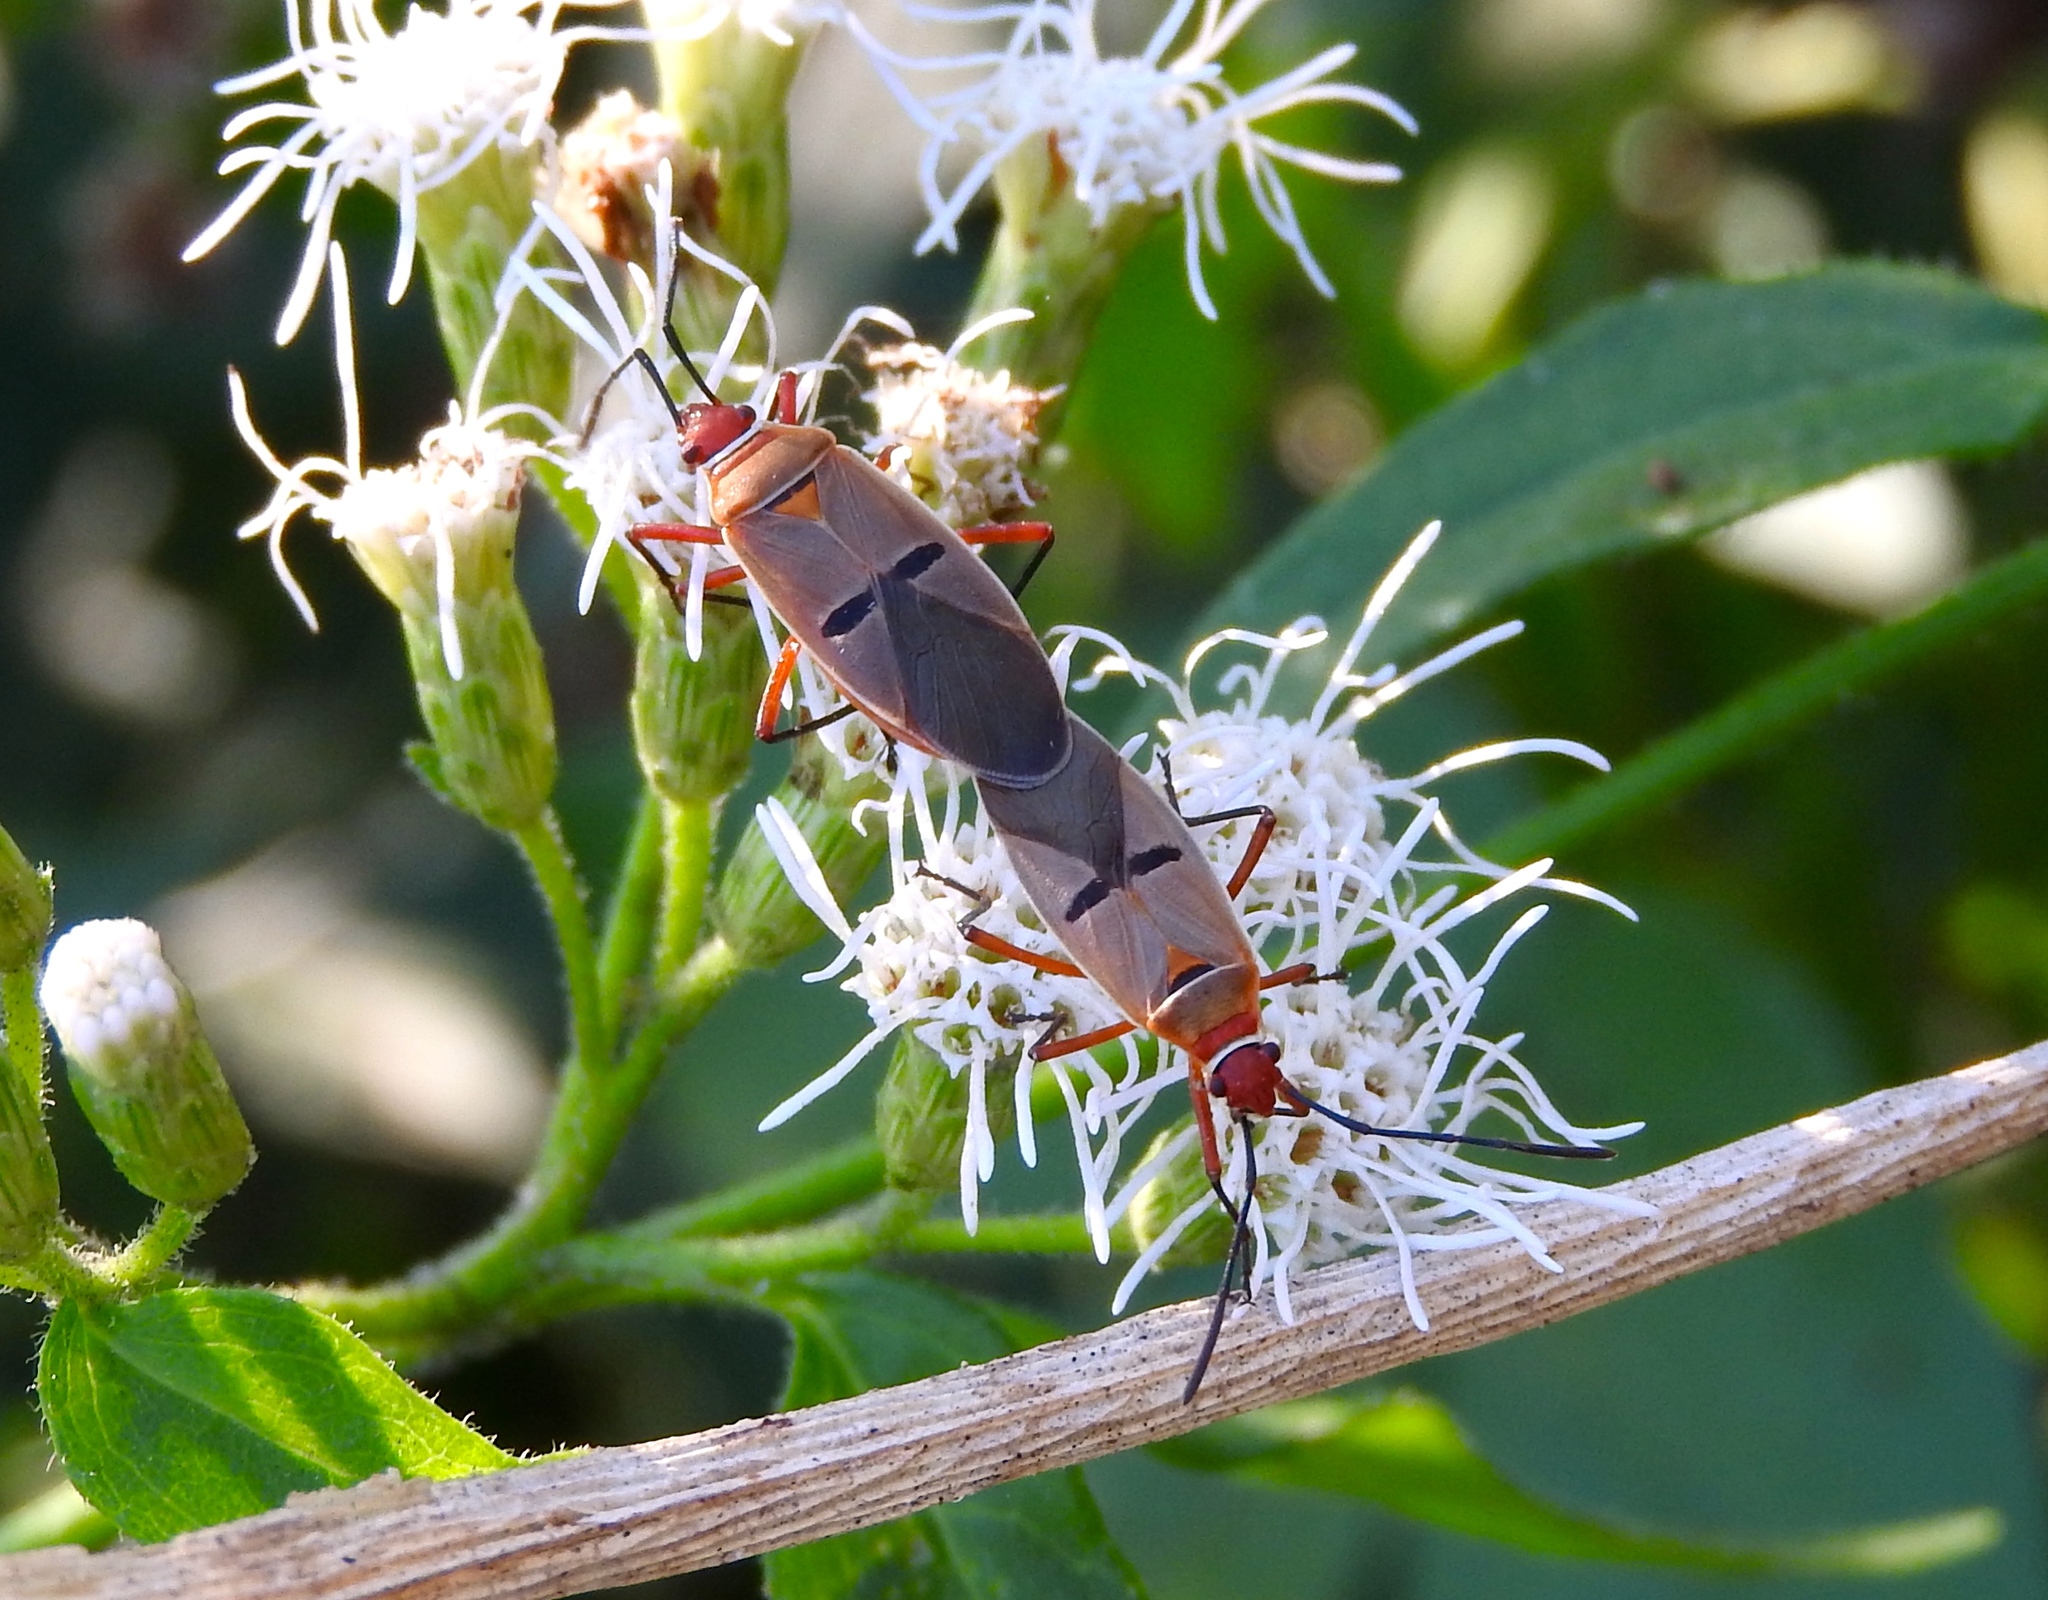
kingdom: Animalia
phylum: Arthropoda
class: Insecta
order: Hemiptera
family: Pyrrhocoridae
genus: Dysdercus
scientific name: Dysdercus
